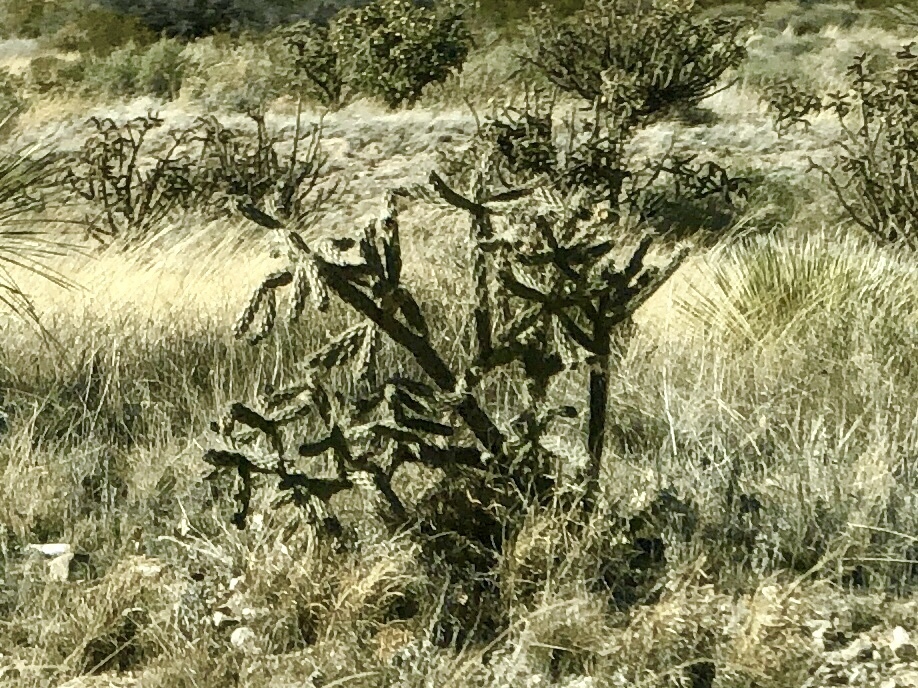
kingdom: Plantae
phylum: Tracheophyta
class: Magnoliopsida
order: Caryophyllales
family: Cactaceae
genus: Cylindropuntia
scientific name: Cylindropuntia imbricata
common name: Candelabrum cactus
